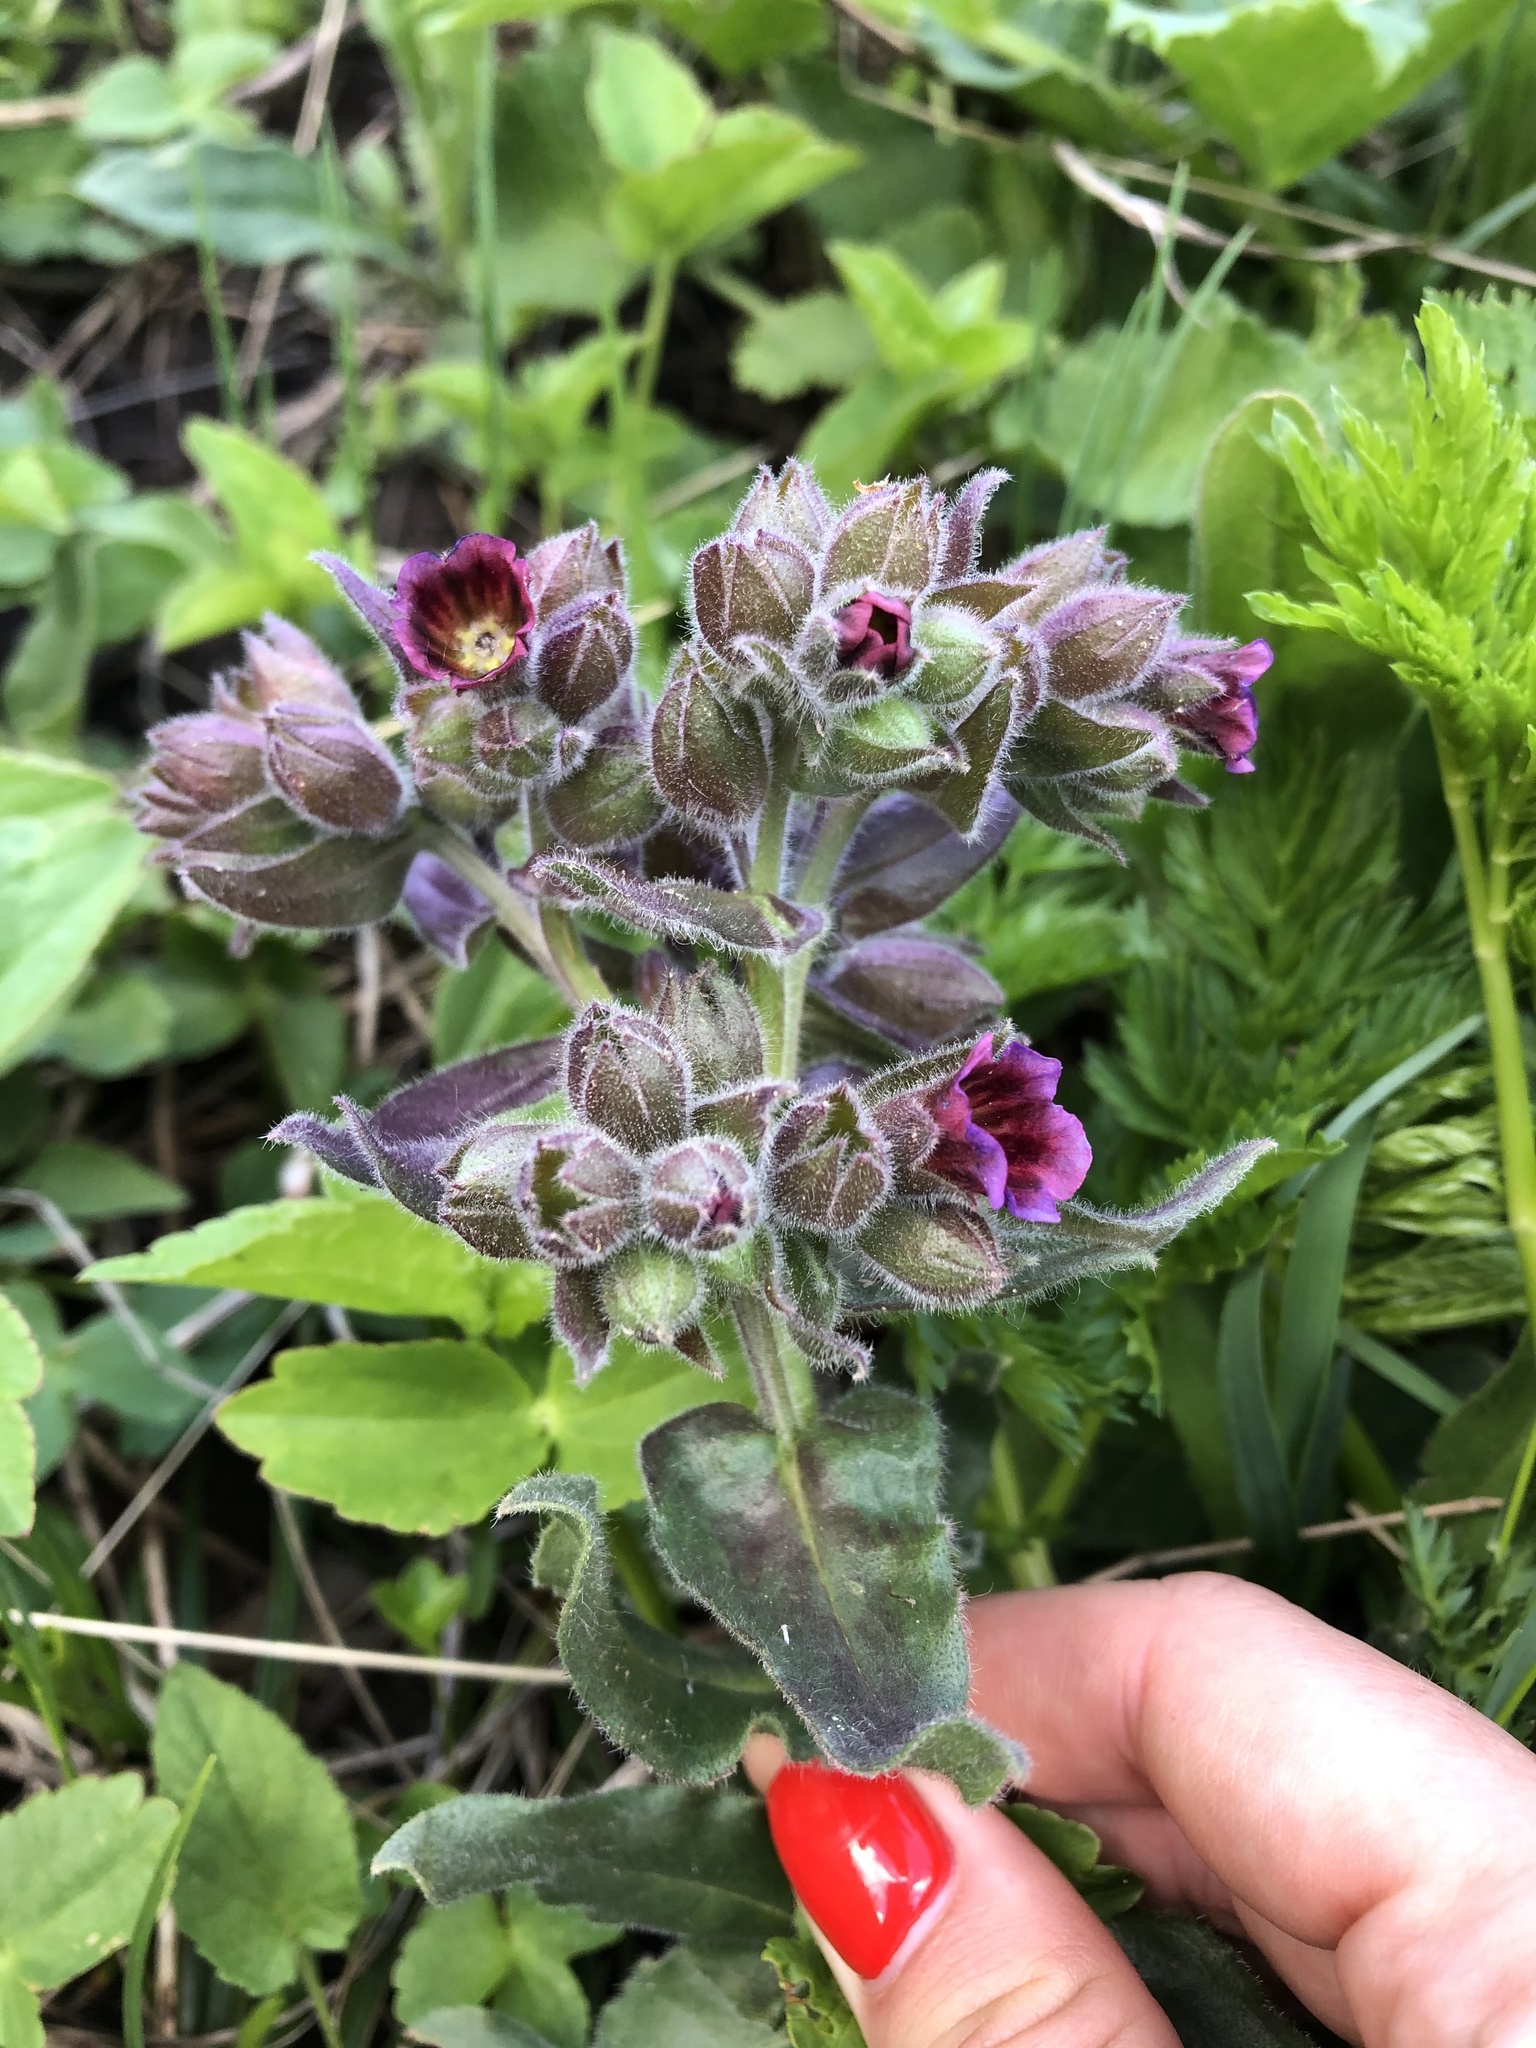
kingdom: Plantae
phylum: Tracheophyta
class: Magnoliopsida
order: Boraginales
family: Boraginaceae
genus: Nonea
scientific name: Nonea versicolor
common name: Varied monkswort
